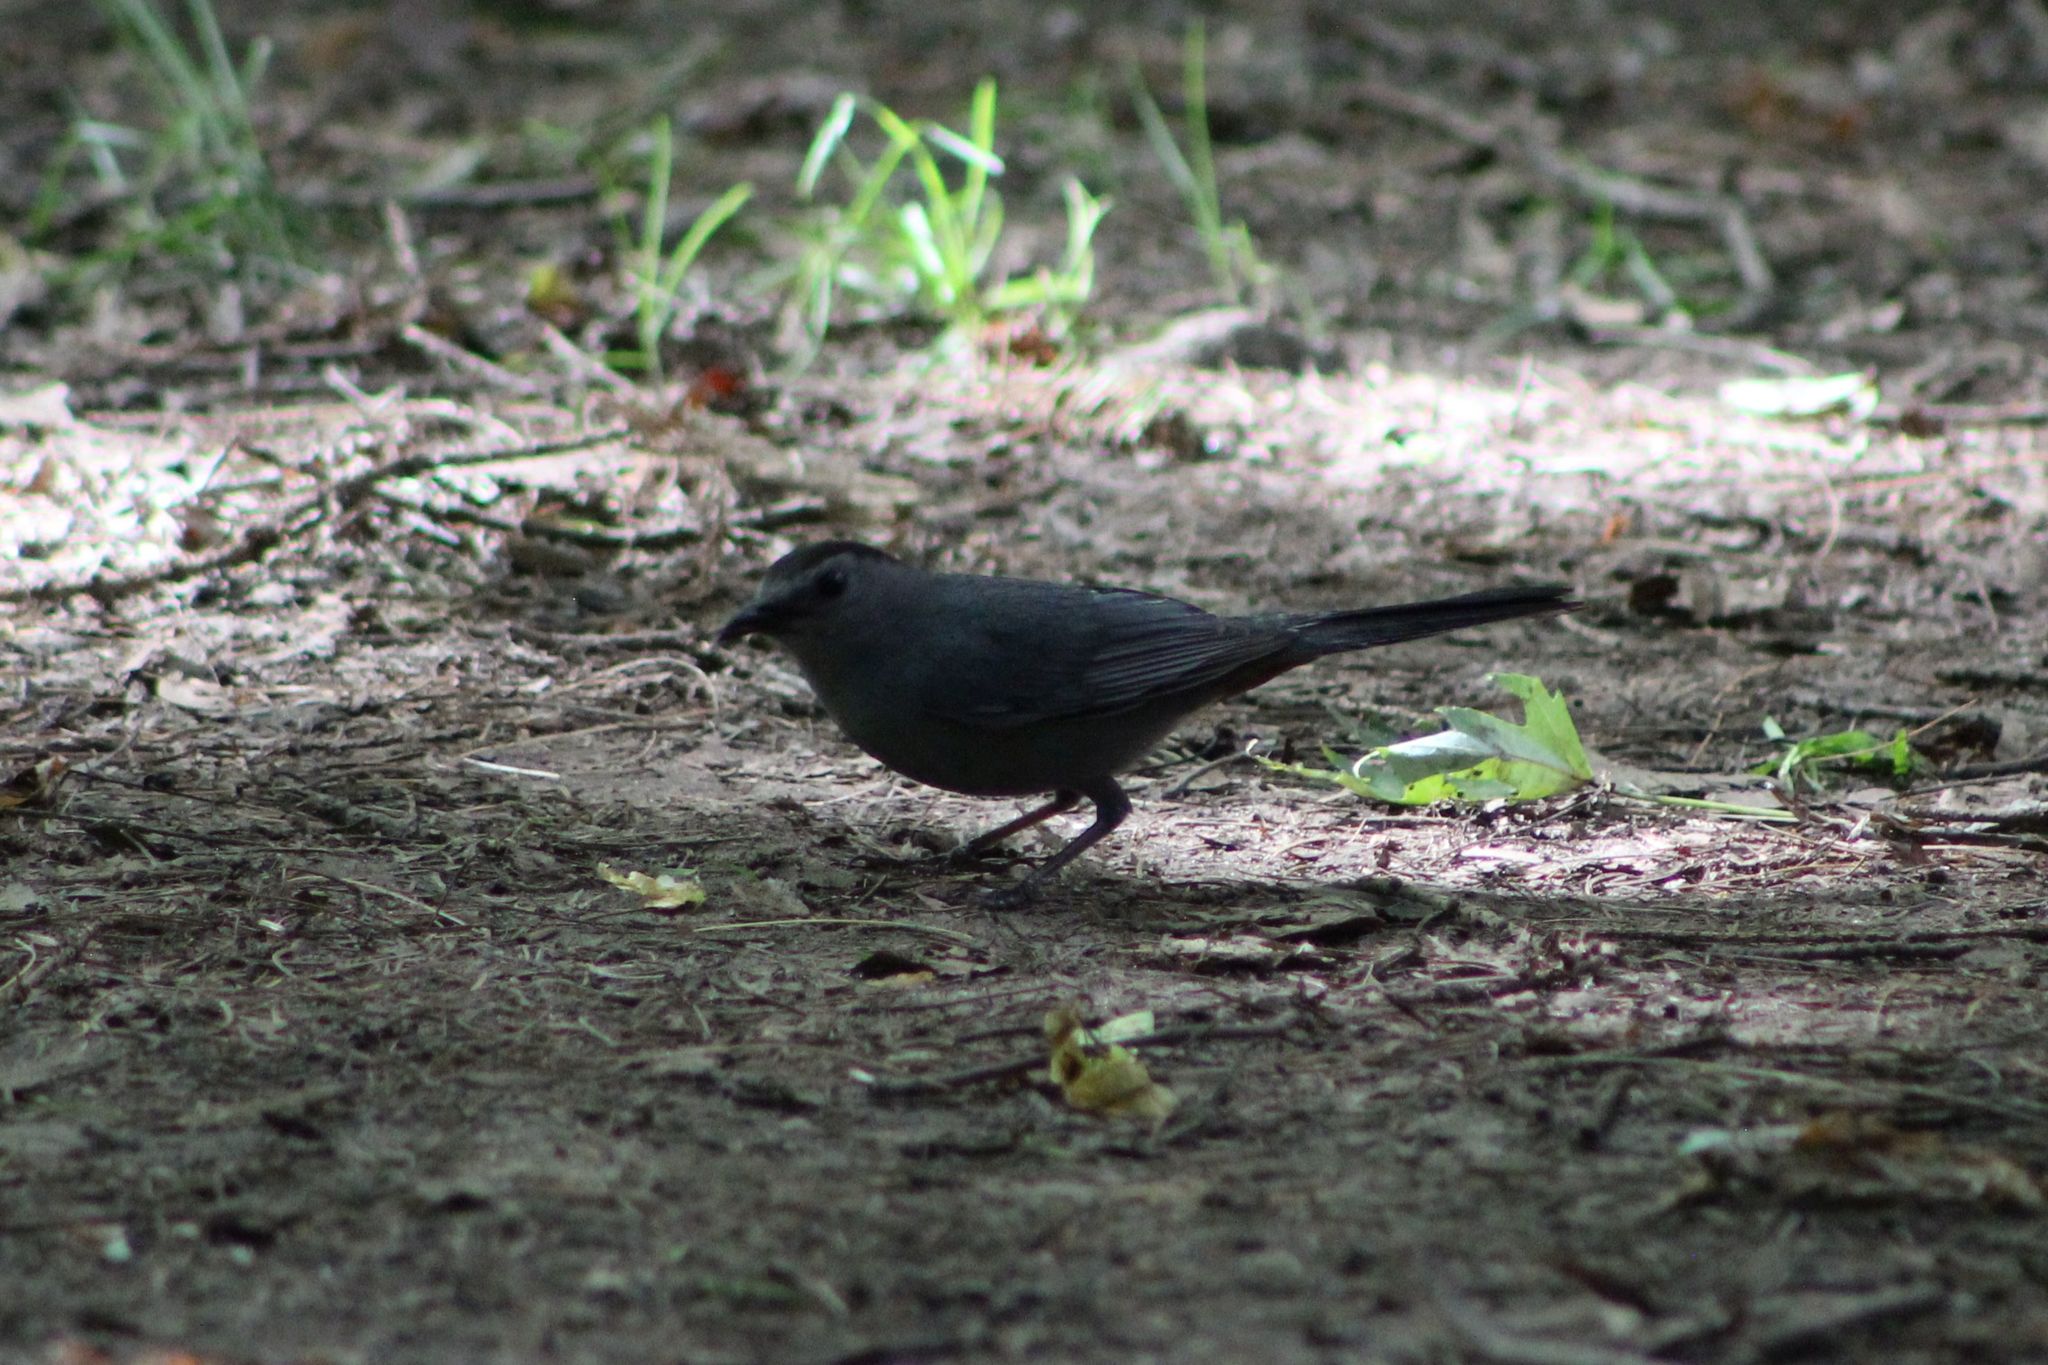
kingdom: Animalia
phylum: Chordata
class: Aves
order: Passeriformes
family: Mimidae
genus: Dumetella
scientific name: Dumetella carolinensis
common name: Gray catbird
